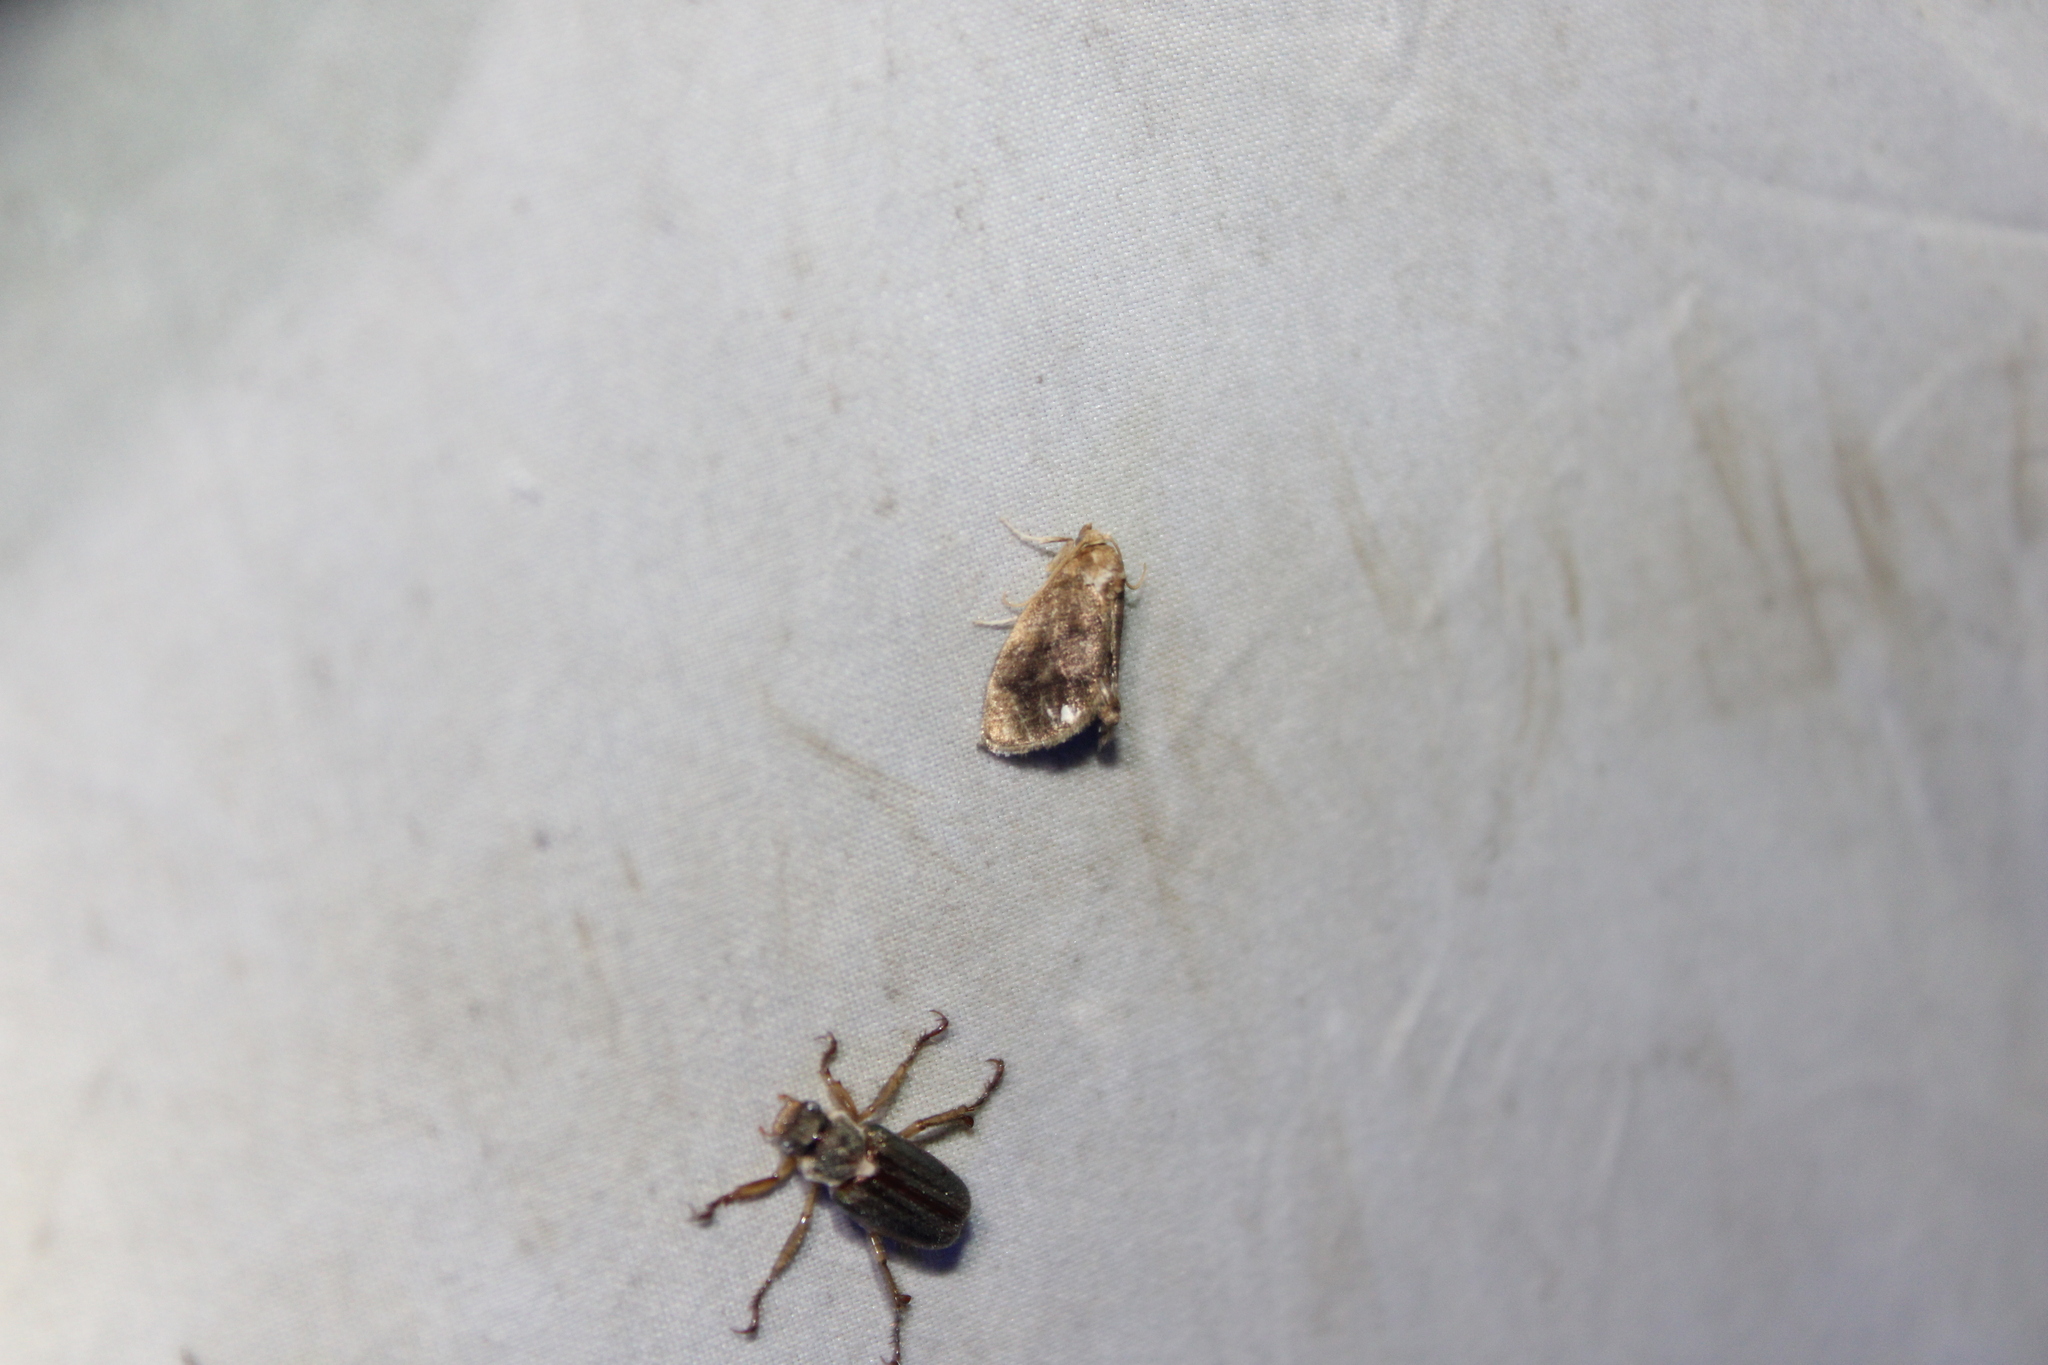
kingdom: Animalia
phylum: Arthropoda
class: Insecta
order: Lepidoptera
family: Limacodidae
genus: Packardia
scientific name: Packardia geminata
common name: Jeweled tailed slug moth
